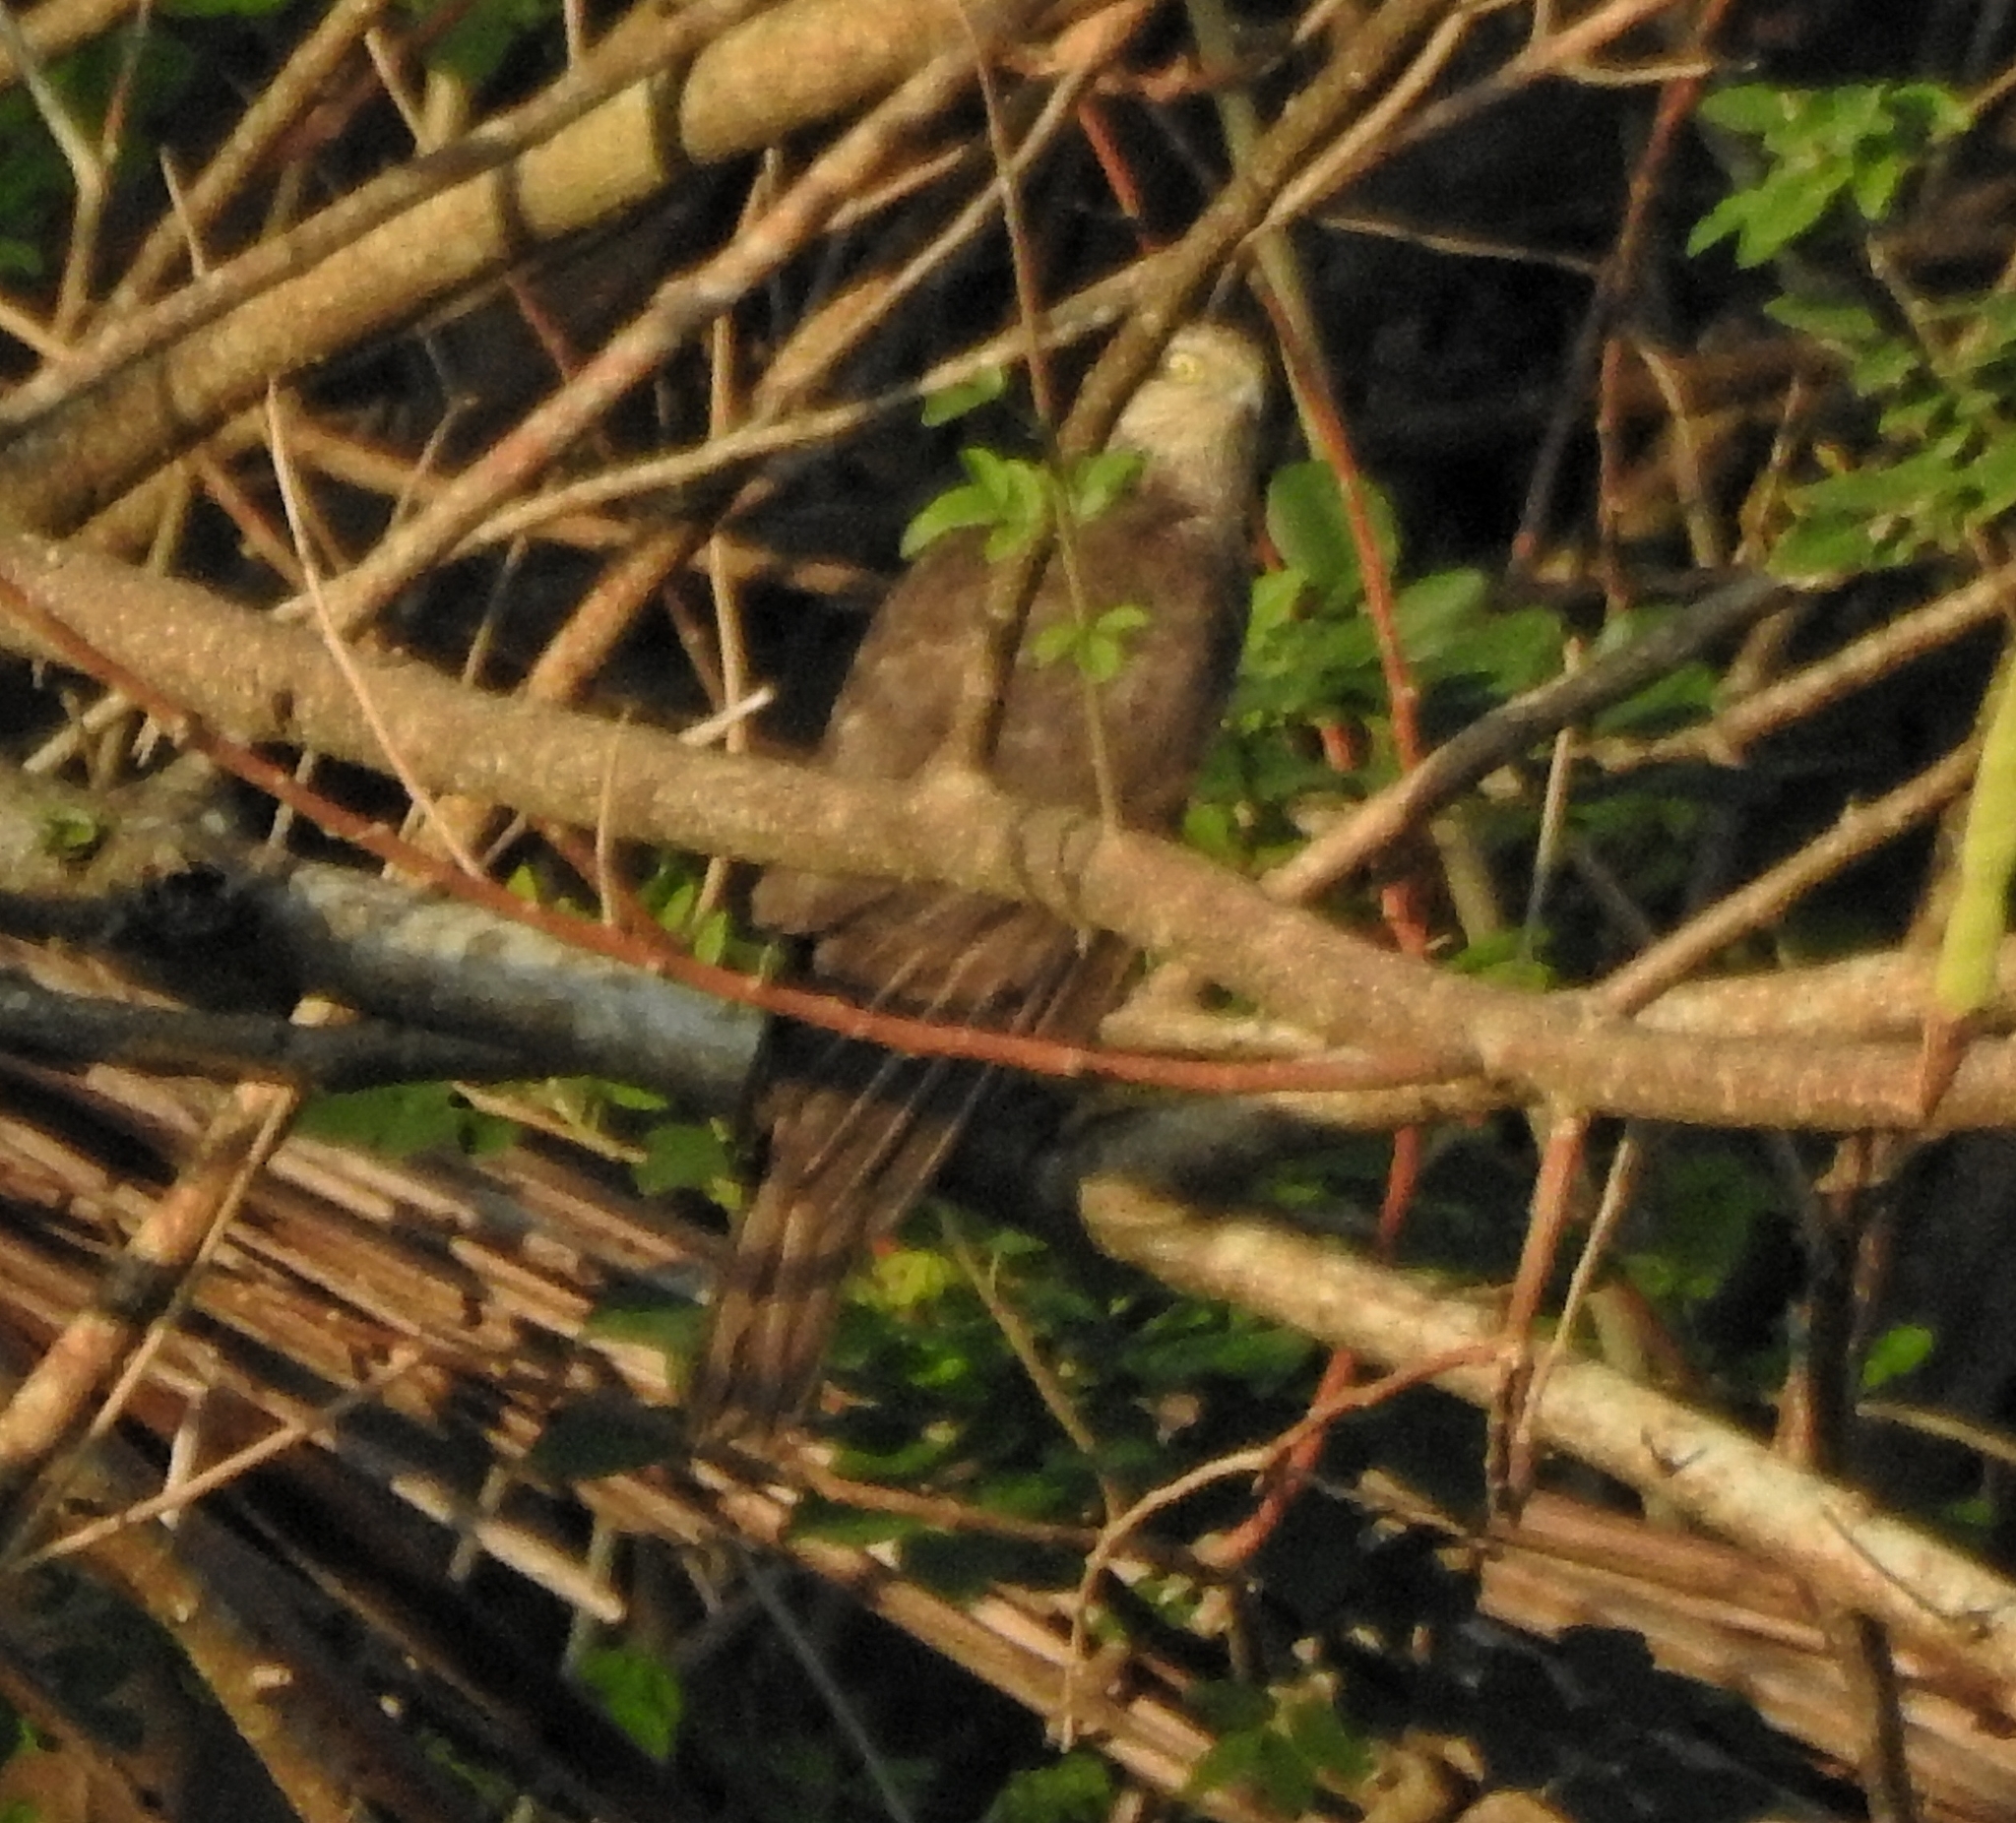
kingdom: Animalia
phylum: Chordata
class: Aves
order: Accipitriformes
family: Accipitridae
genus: Accipiter
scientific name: Accipiter nisus
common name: Eurasian sparrowhawk
